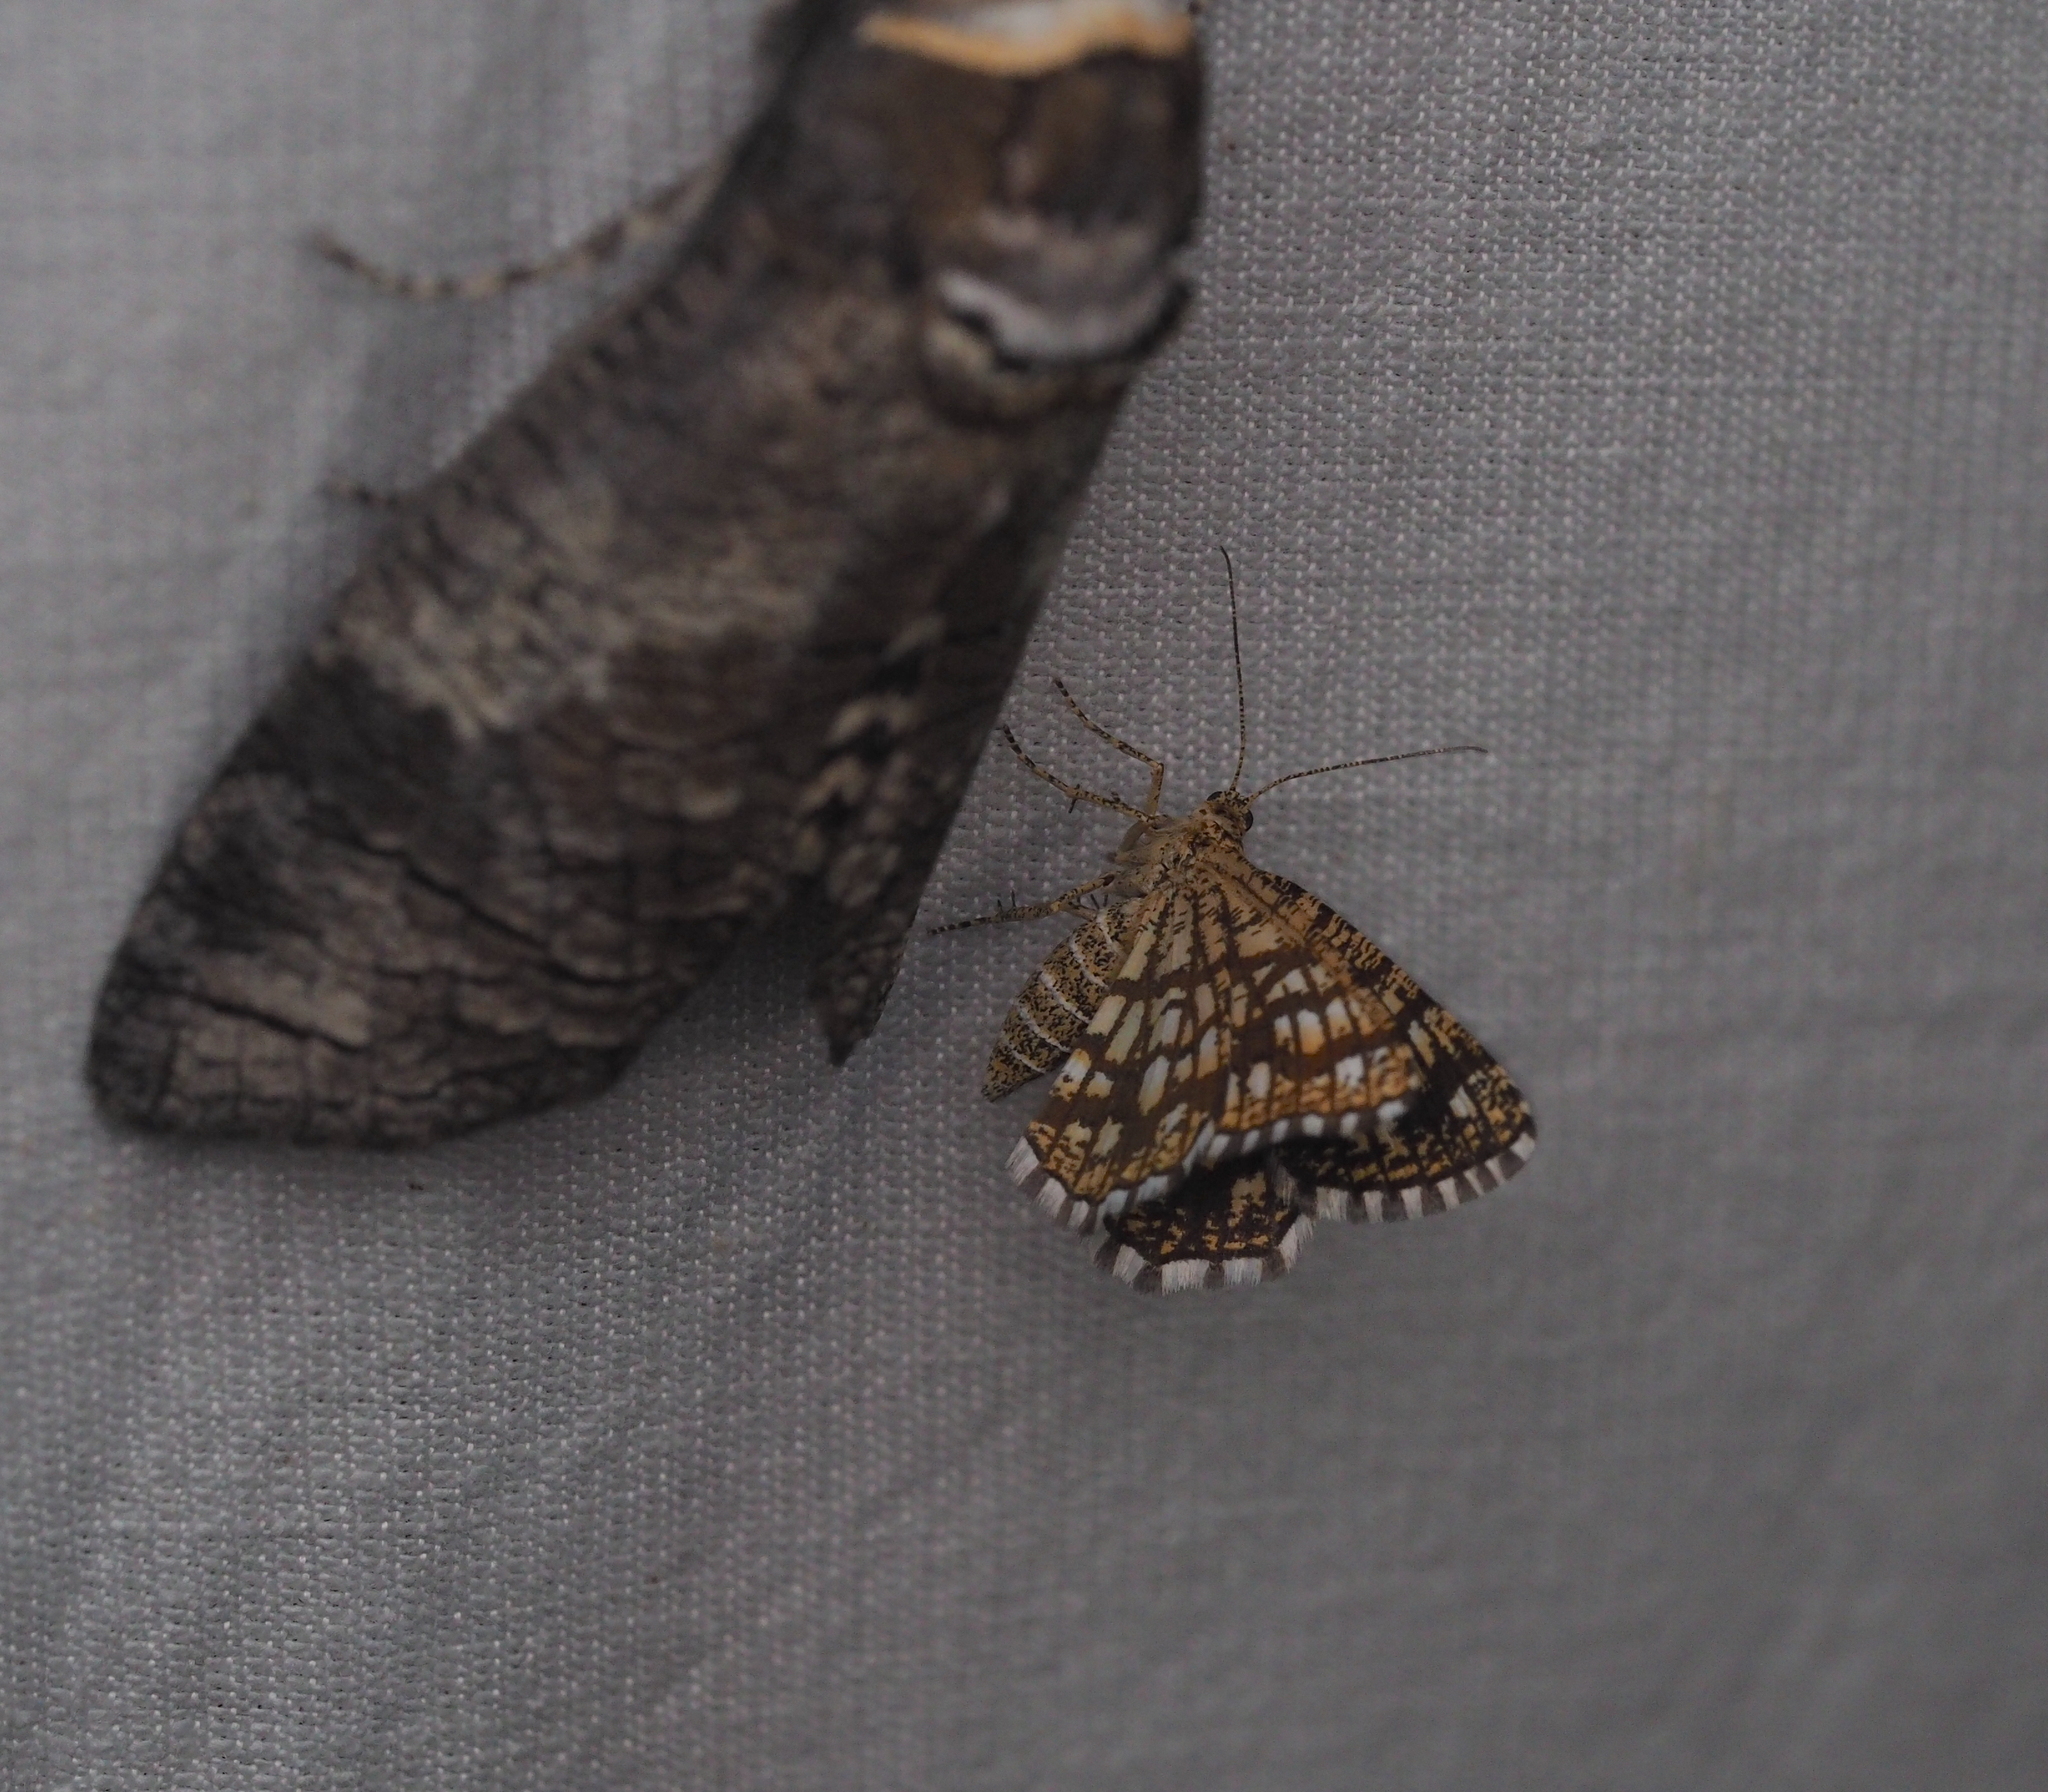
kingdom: Animalia
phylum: Arthropoda
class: Insecta
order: Lepidoptera
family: Geometridae
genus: Chiasmia
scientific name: Chiasmia clathrata
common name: Latticed heath
